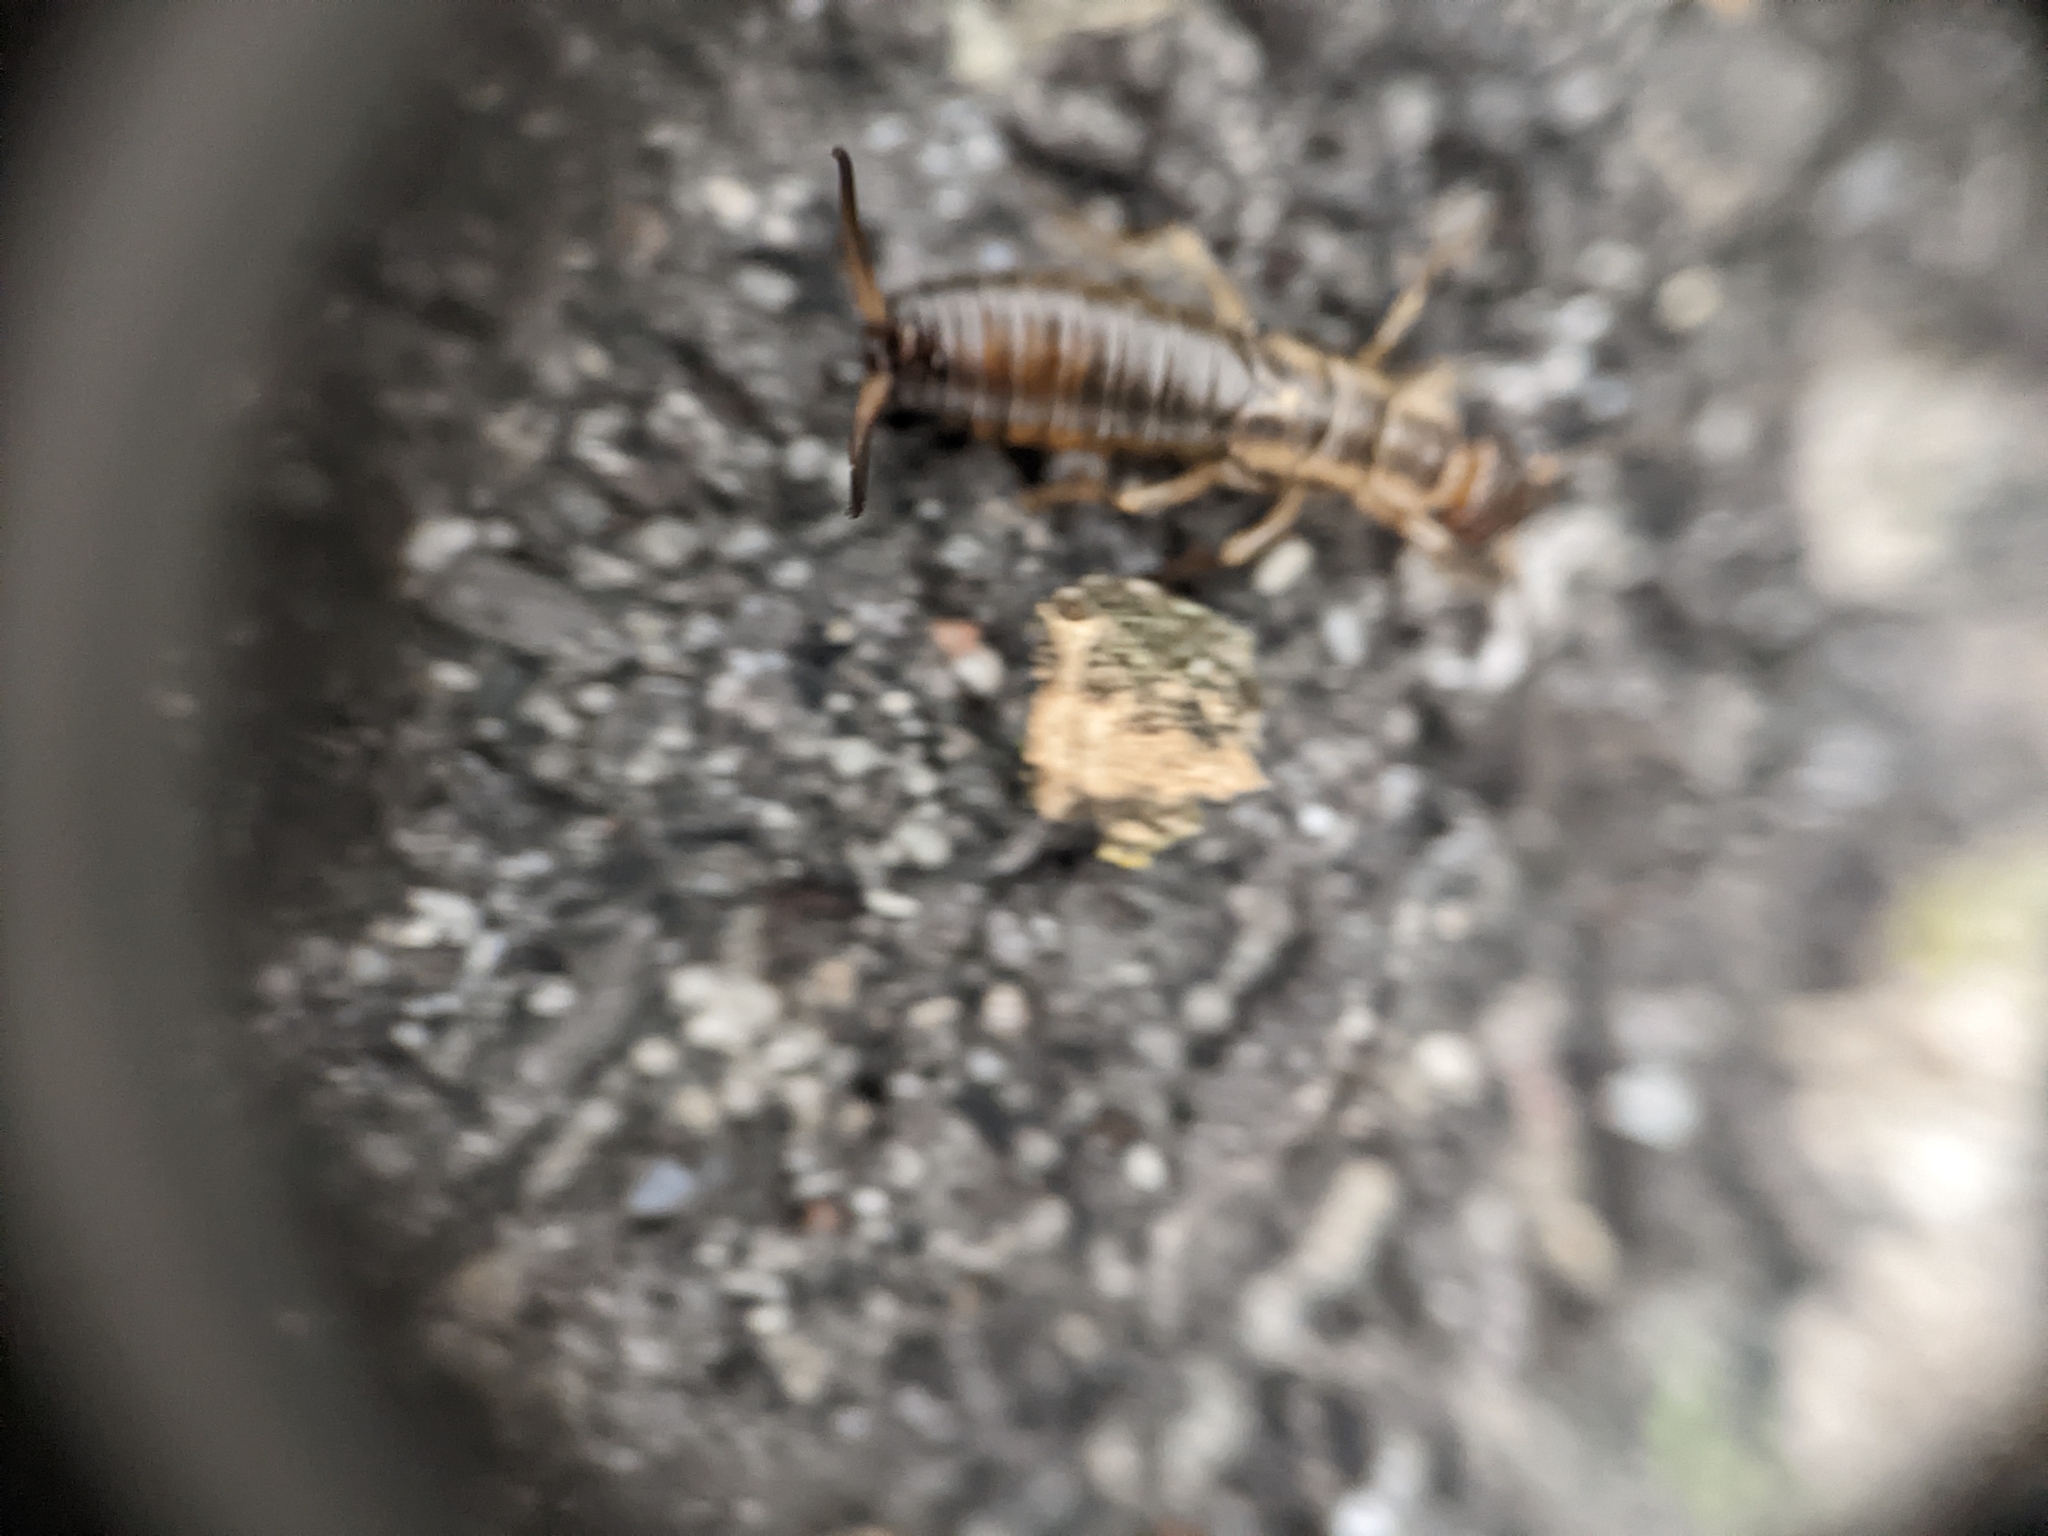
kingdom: Animalia
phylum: Arthropoda
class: Insecta
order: Dermaptera
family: Forficulidae
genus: Forficula
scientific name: Forficula
